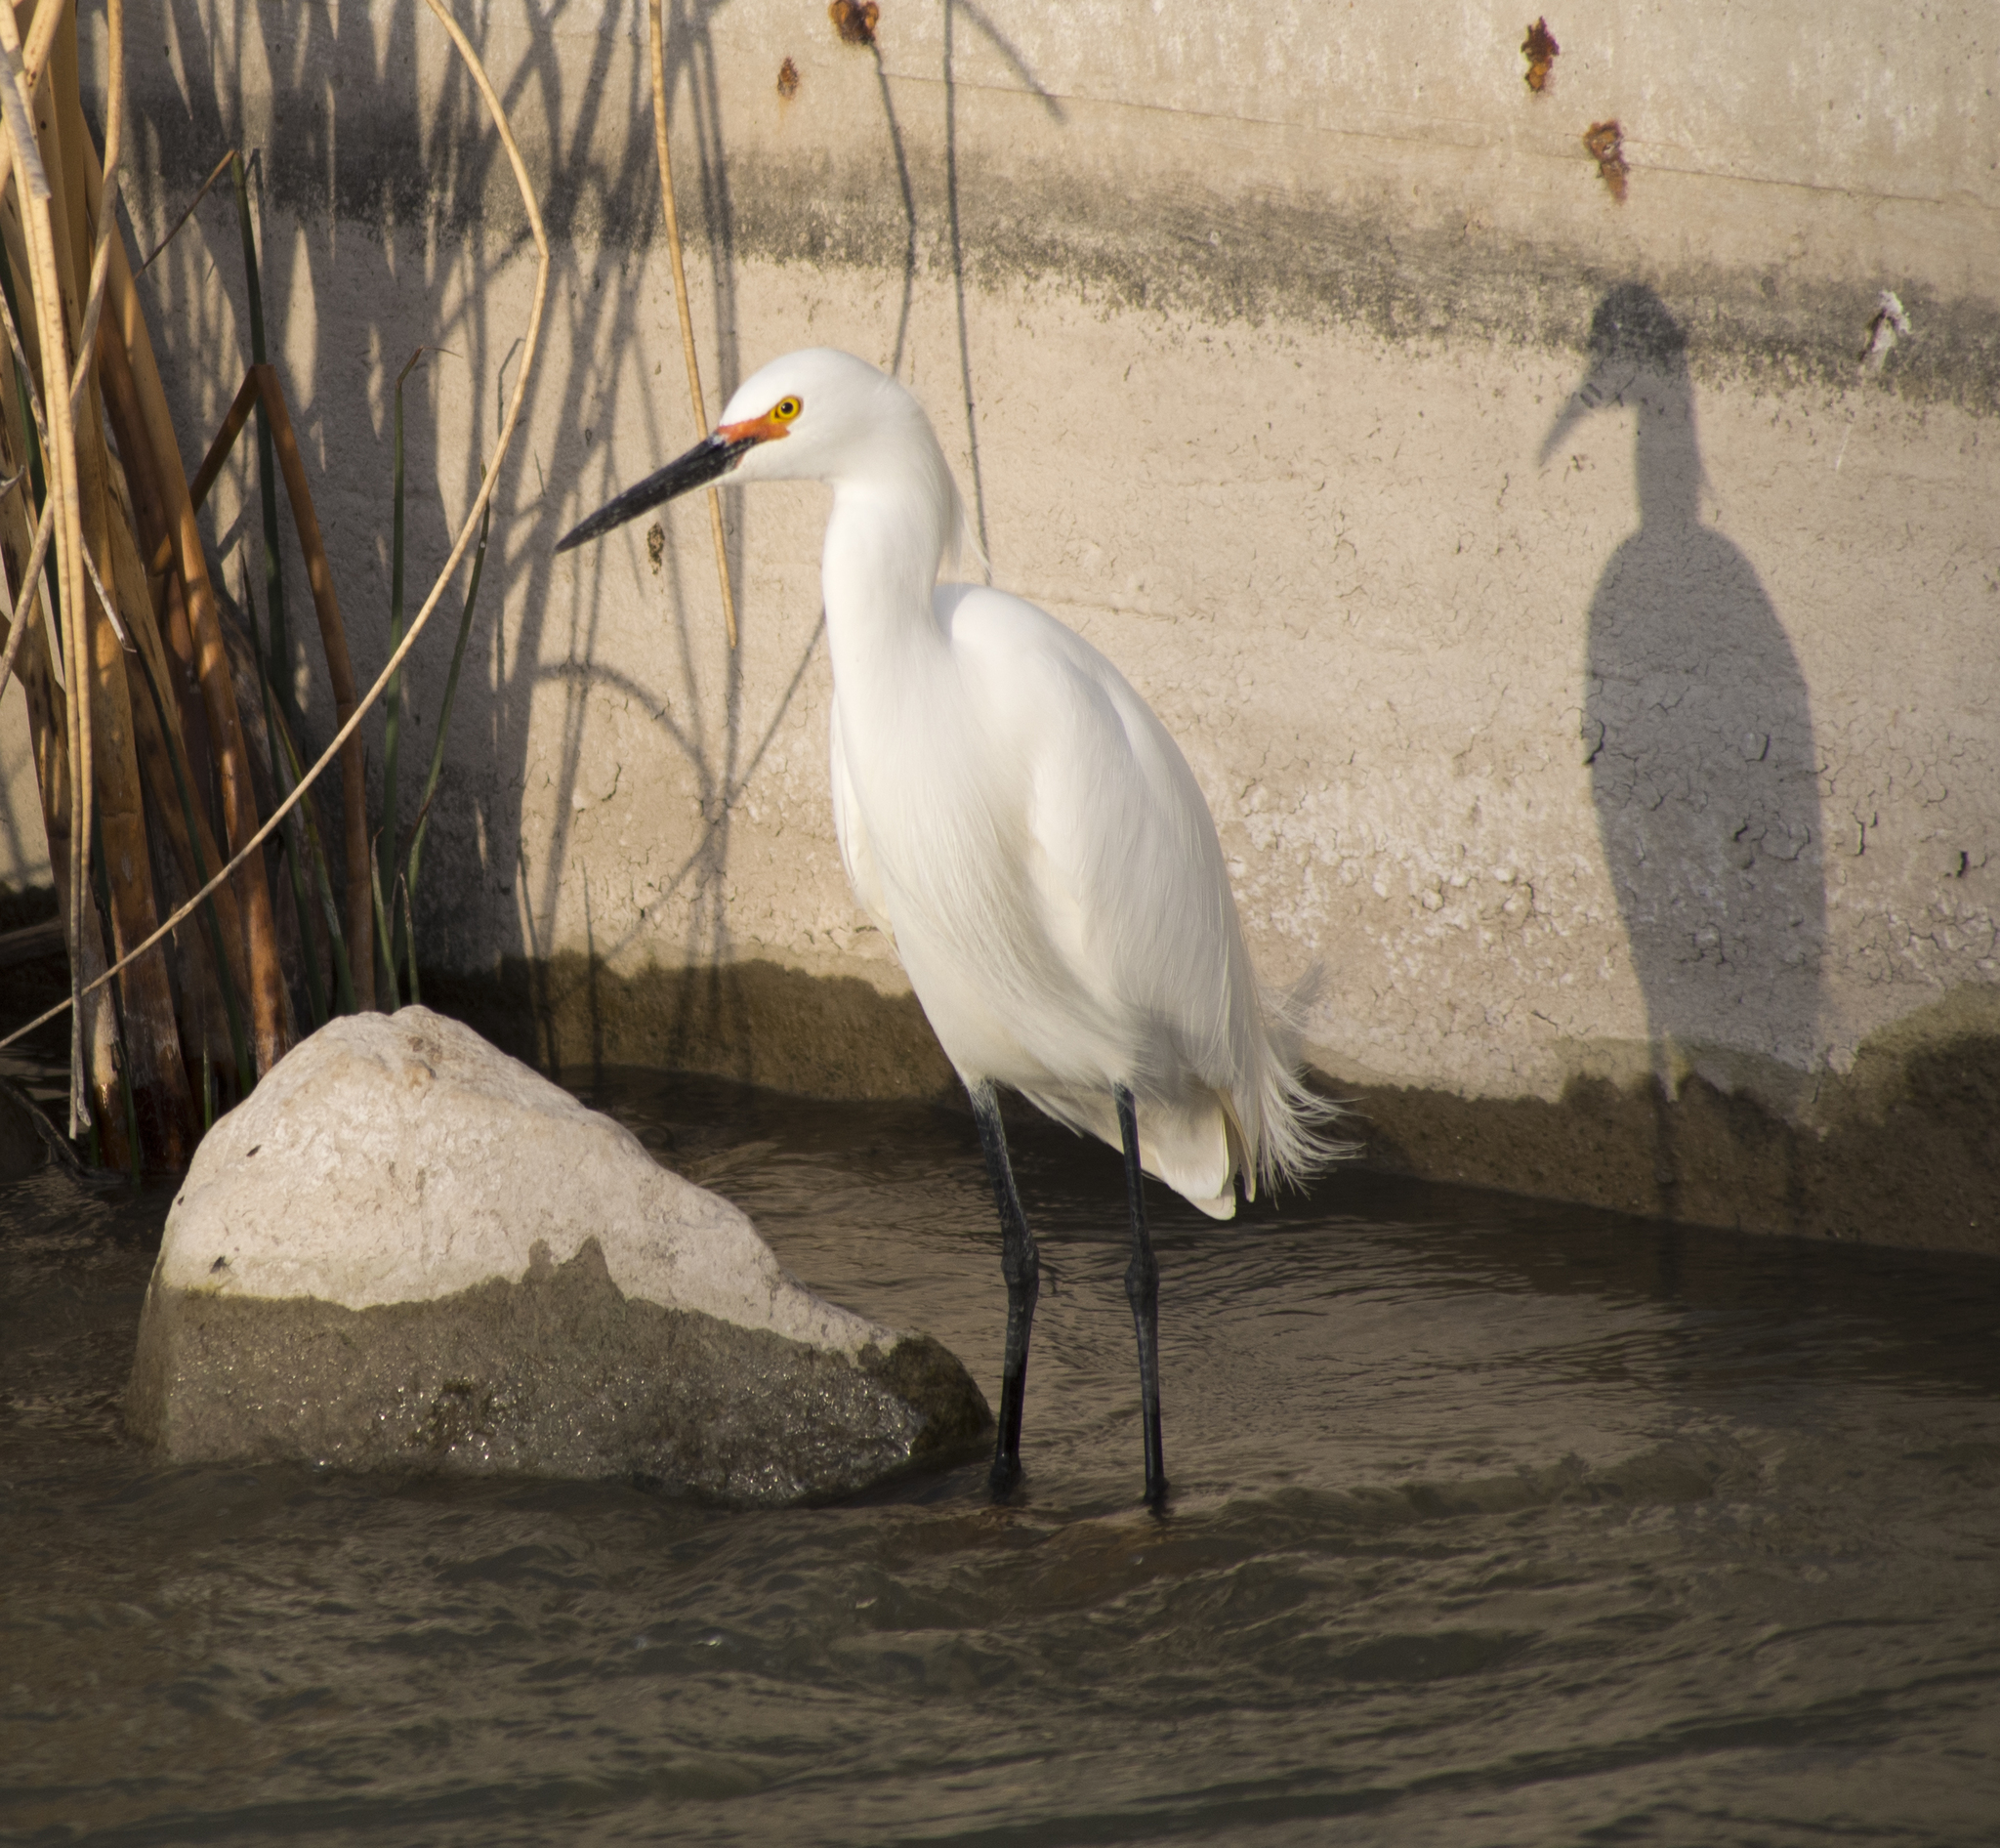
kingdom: Animalia
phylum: Chordata
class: Aves
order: Pelecaniformes
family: Ardeidae
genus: Egretta
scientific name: Egretta thula
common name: Snowy egret
